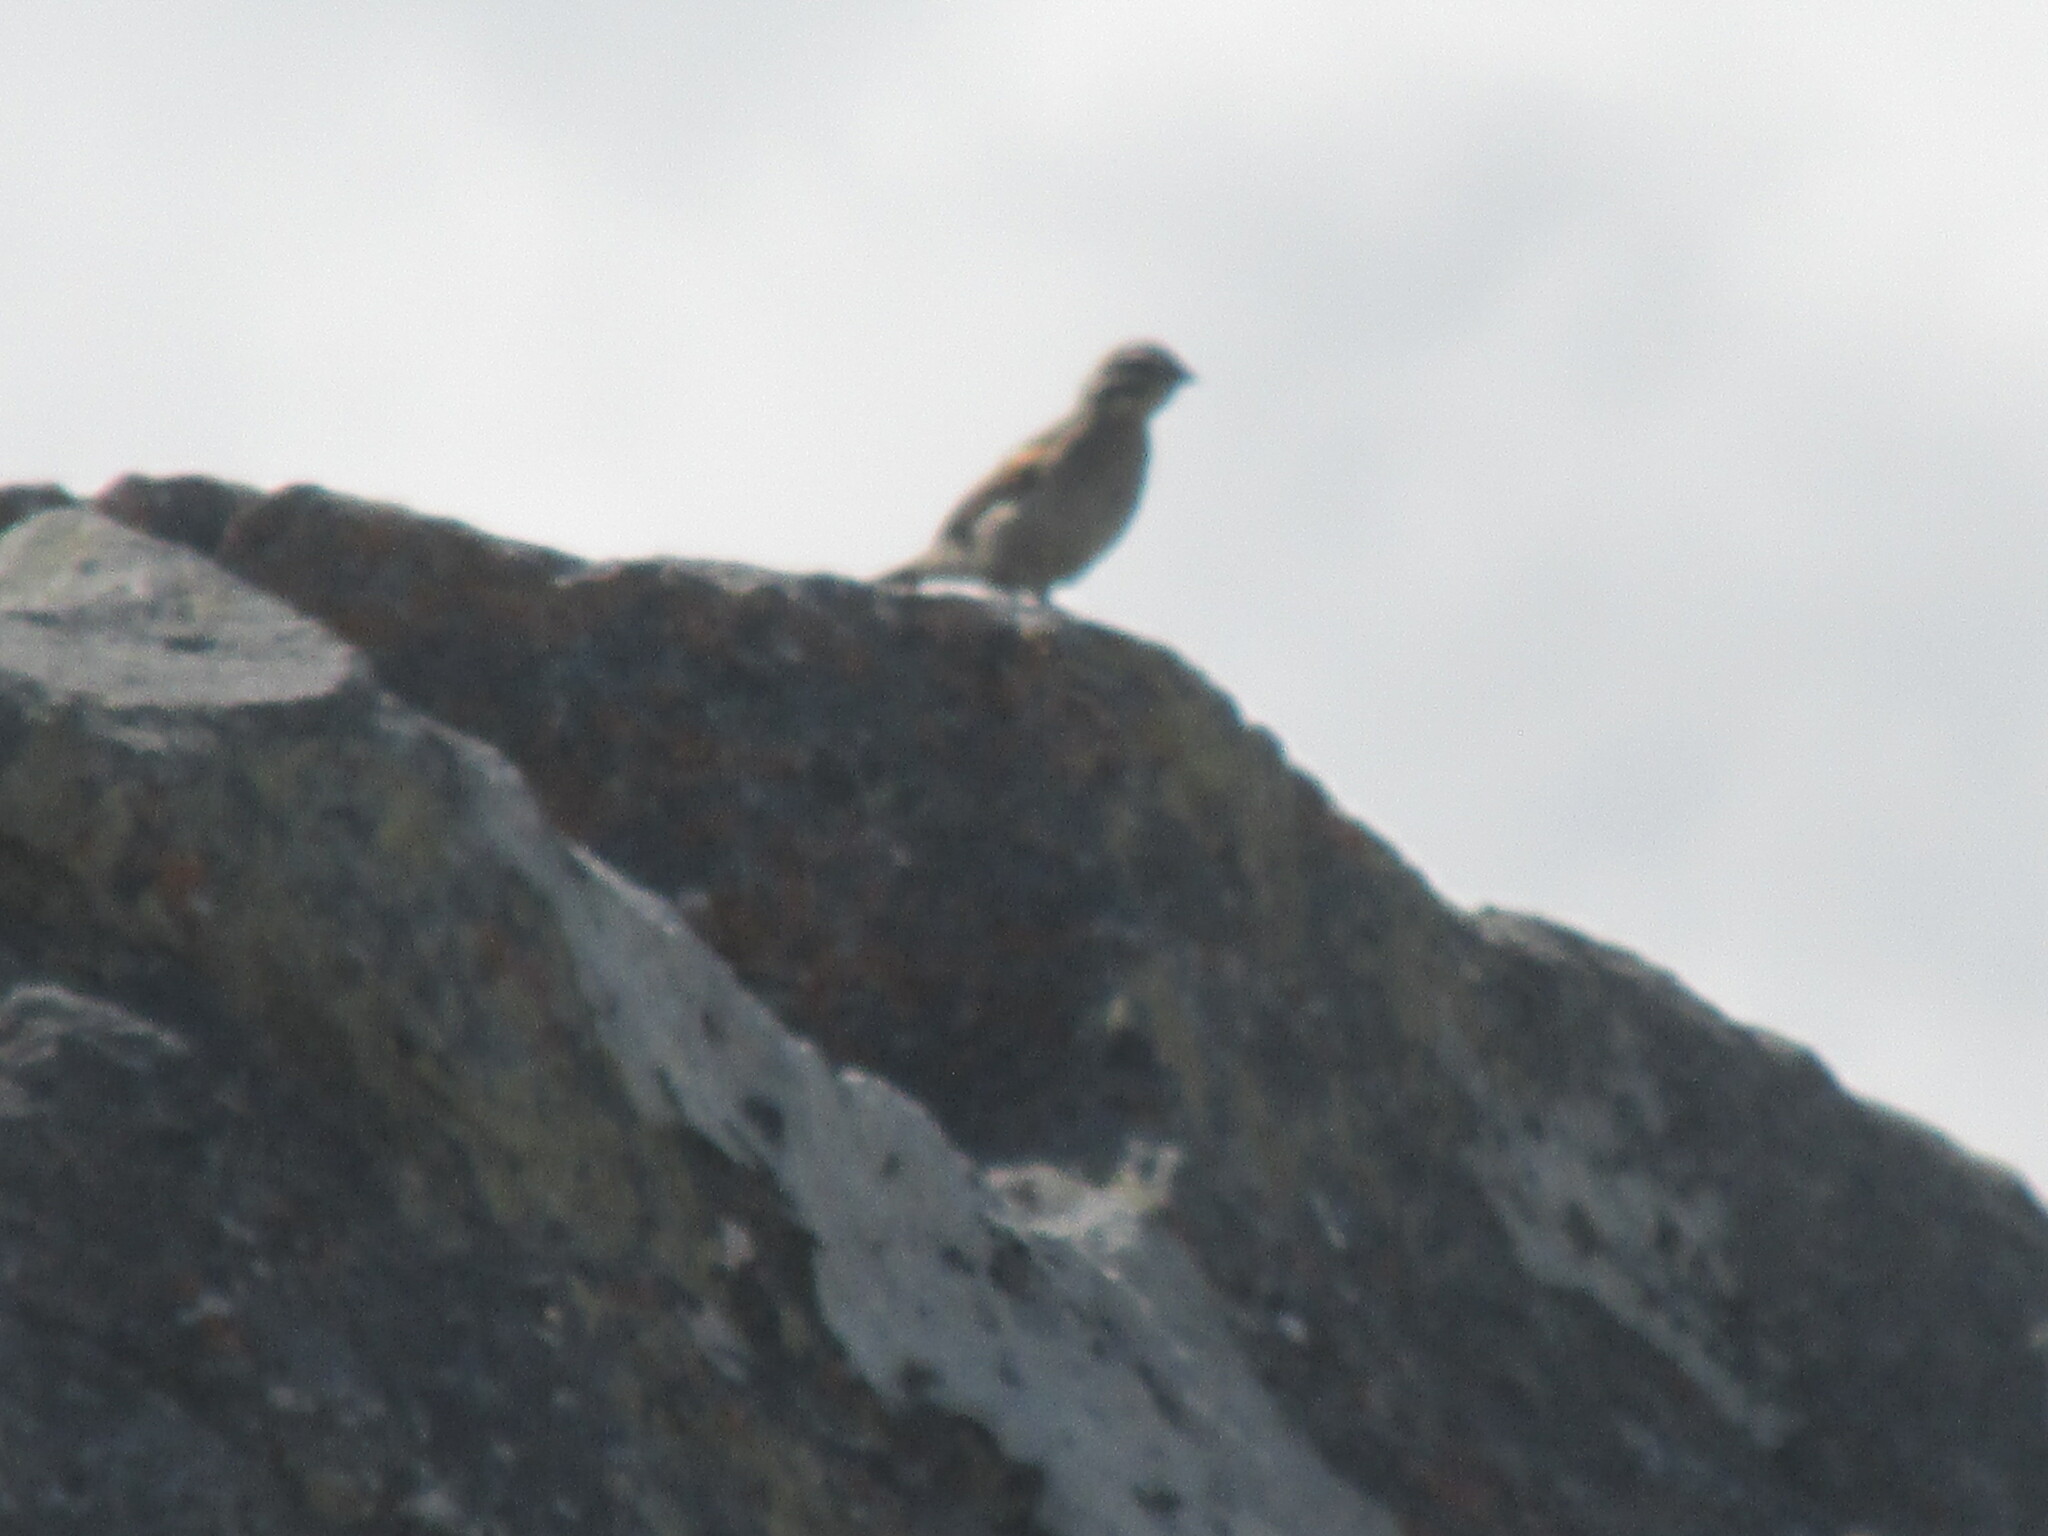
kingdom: Animalia
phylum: Chordata
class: Aves
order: Passeriformes
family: Emberizidae
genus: Emberiza
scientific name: Emberiza capensis
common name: Cape bunting
